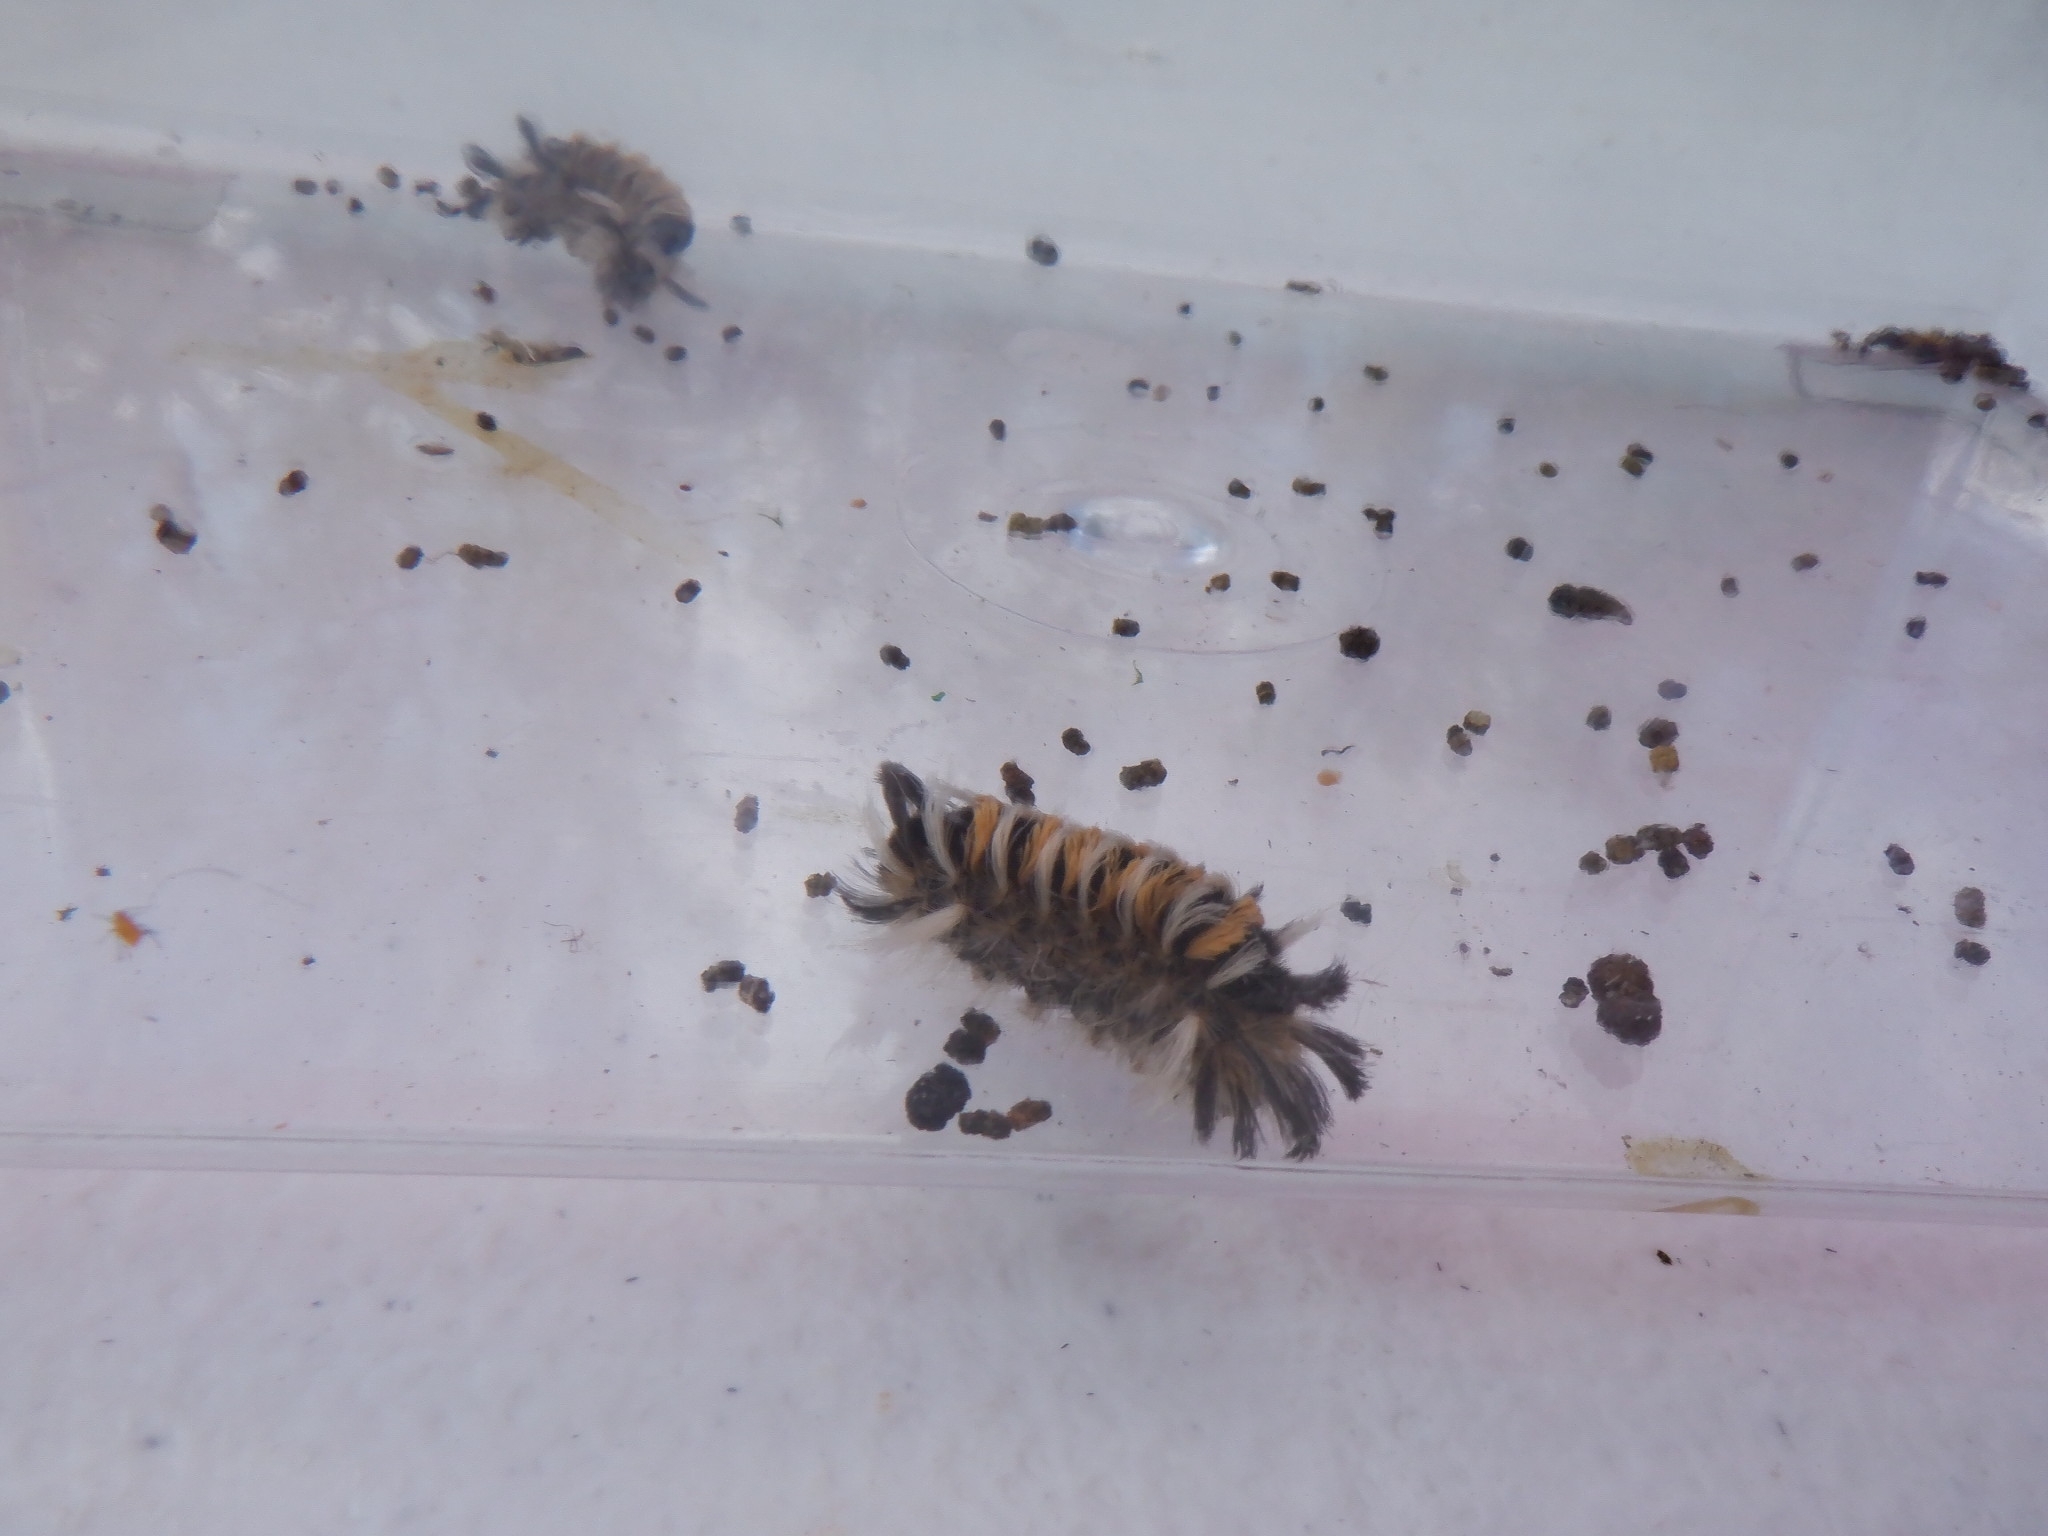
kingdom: Animalia
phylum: Arthropoda
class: Insecta
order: Lepidoptera
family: Erebidae
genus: Euchaetes
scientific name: Euchaetes egle
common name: Milkweed tussock moth
